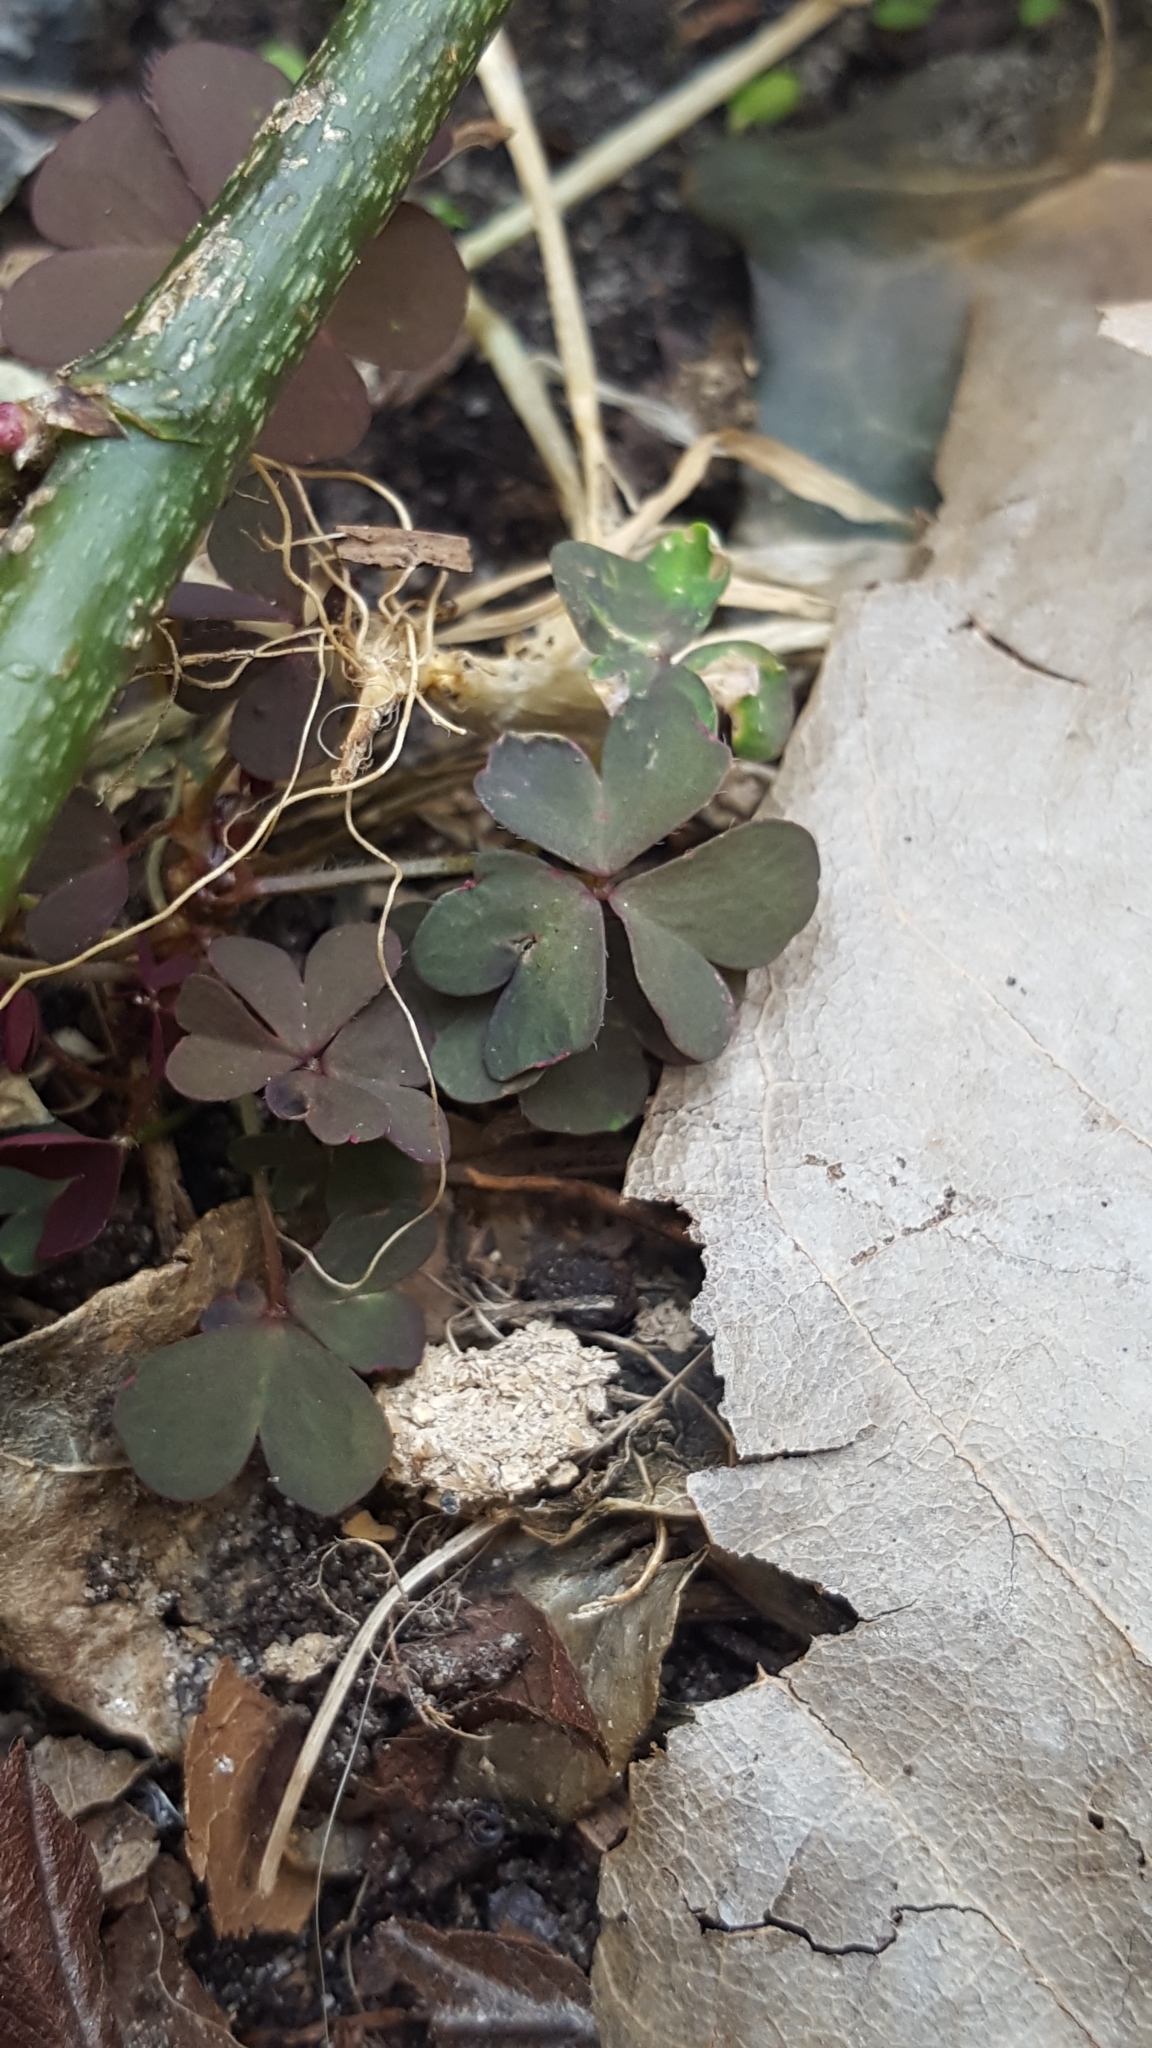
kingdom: Plantae
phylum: Tracheophyta
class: Magnoliopsida
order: Oxalidales
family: Oxalidaceae
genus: Oxalis
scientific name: Oxalis corniculata
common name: Procumbent yellow-sorrel
